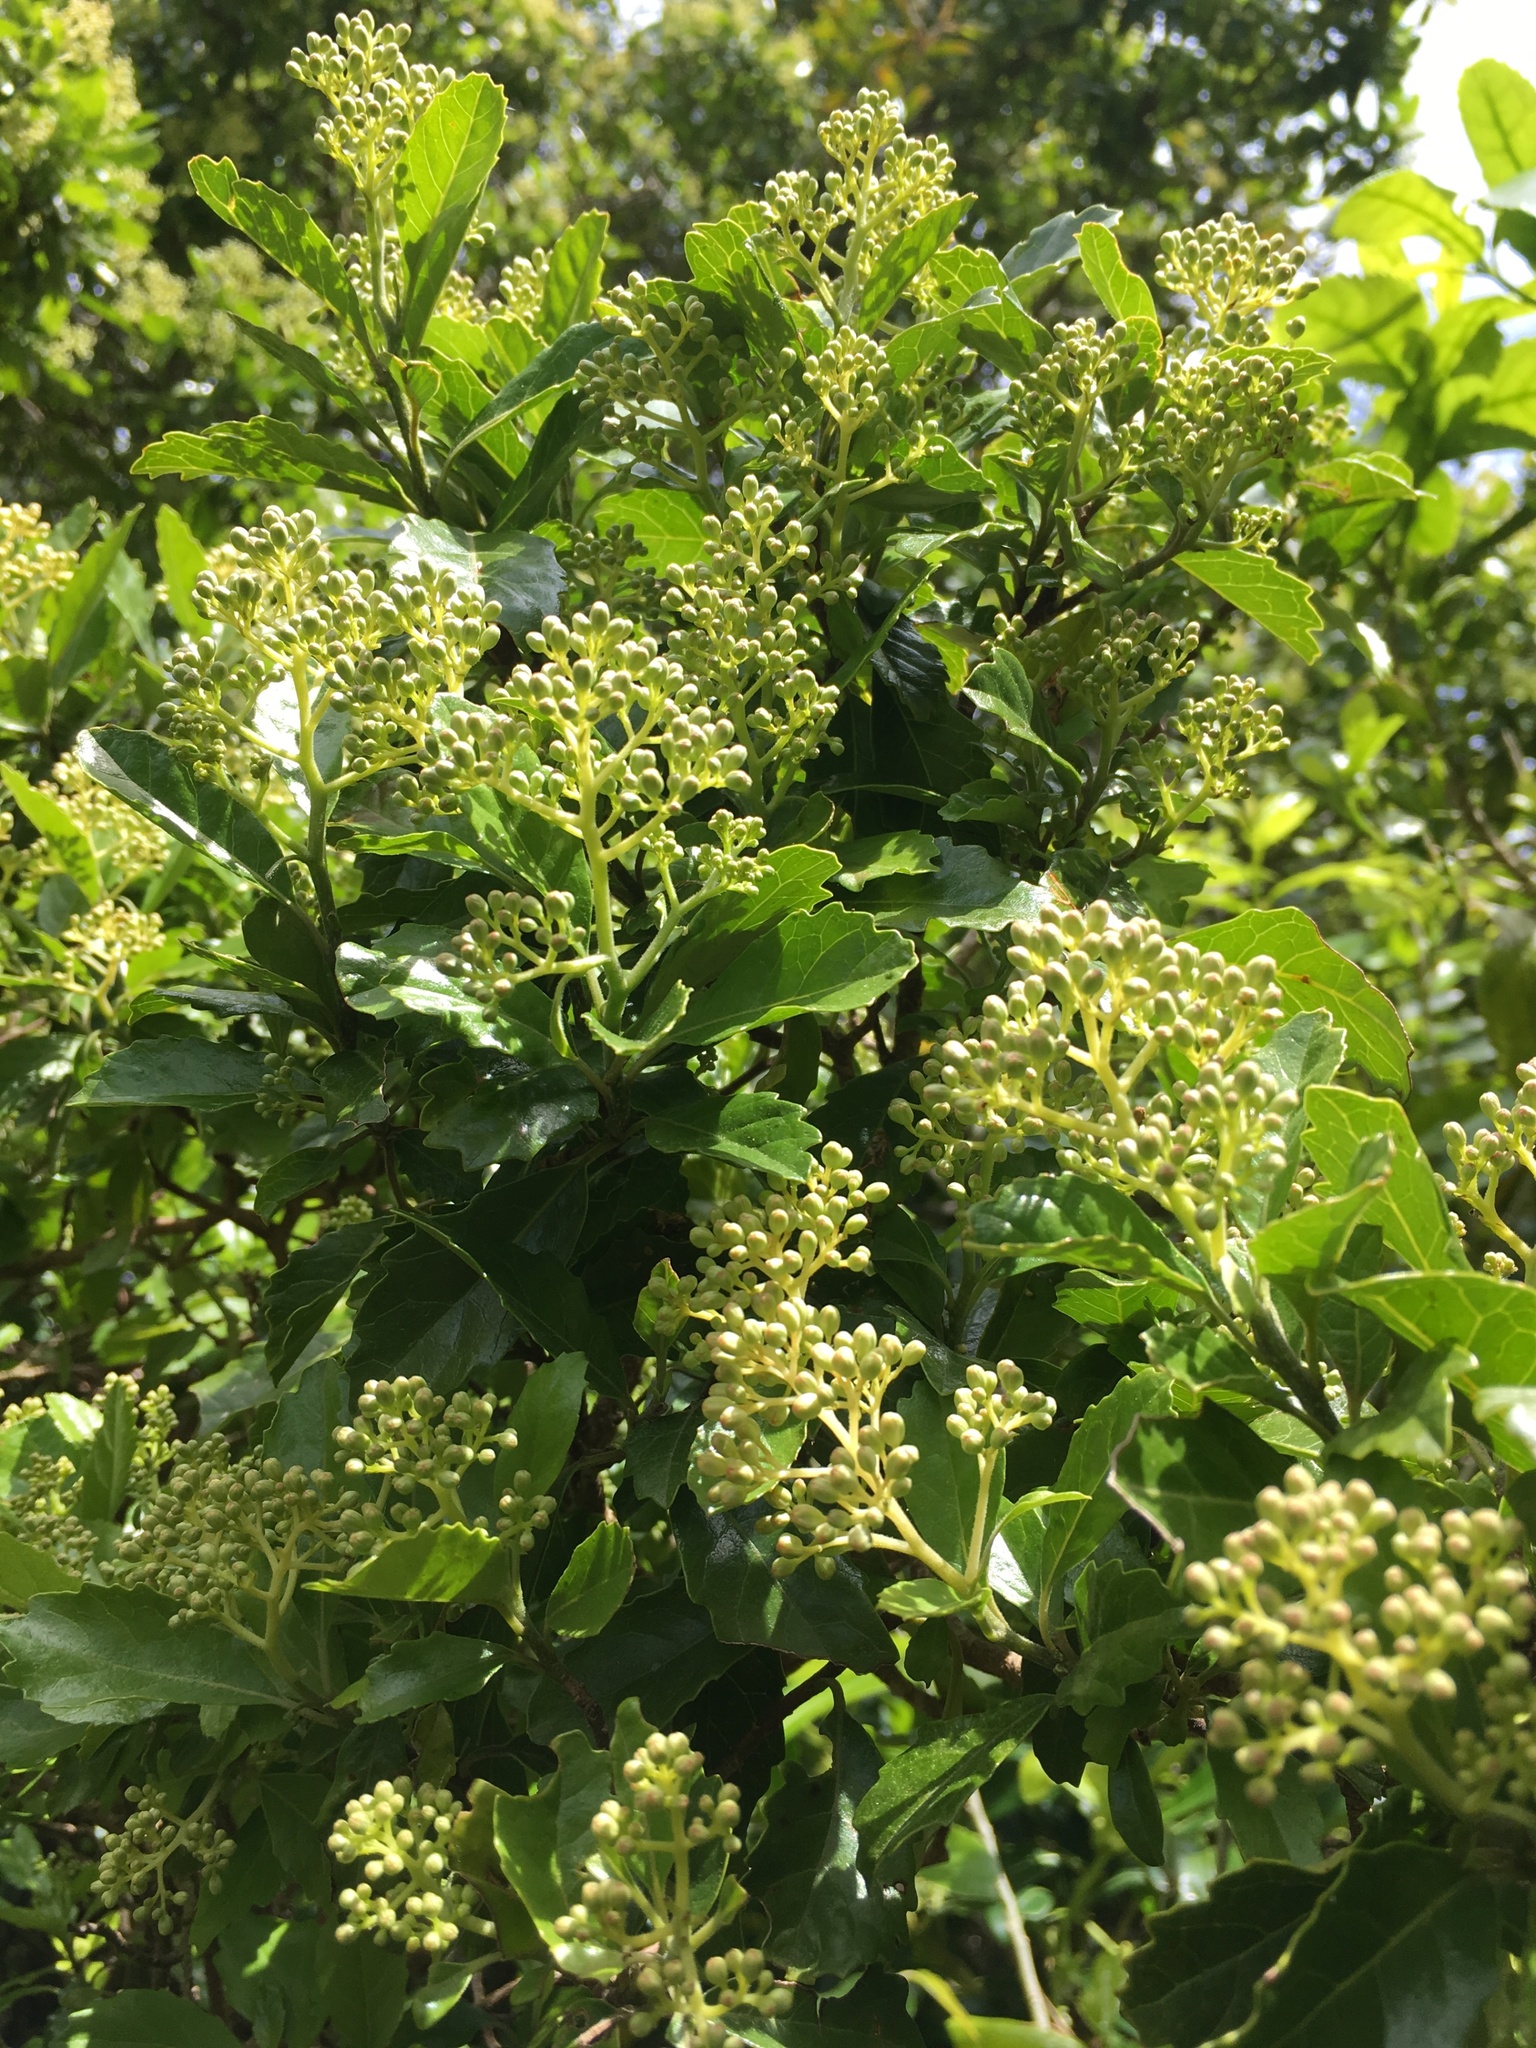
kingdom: Plantae
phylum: Tracheophyta
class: Magnoliopsida
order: Apiales
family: Pennantiaceae
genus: Pennantia
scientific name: Pennantia corymbosa
